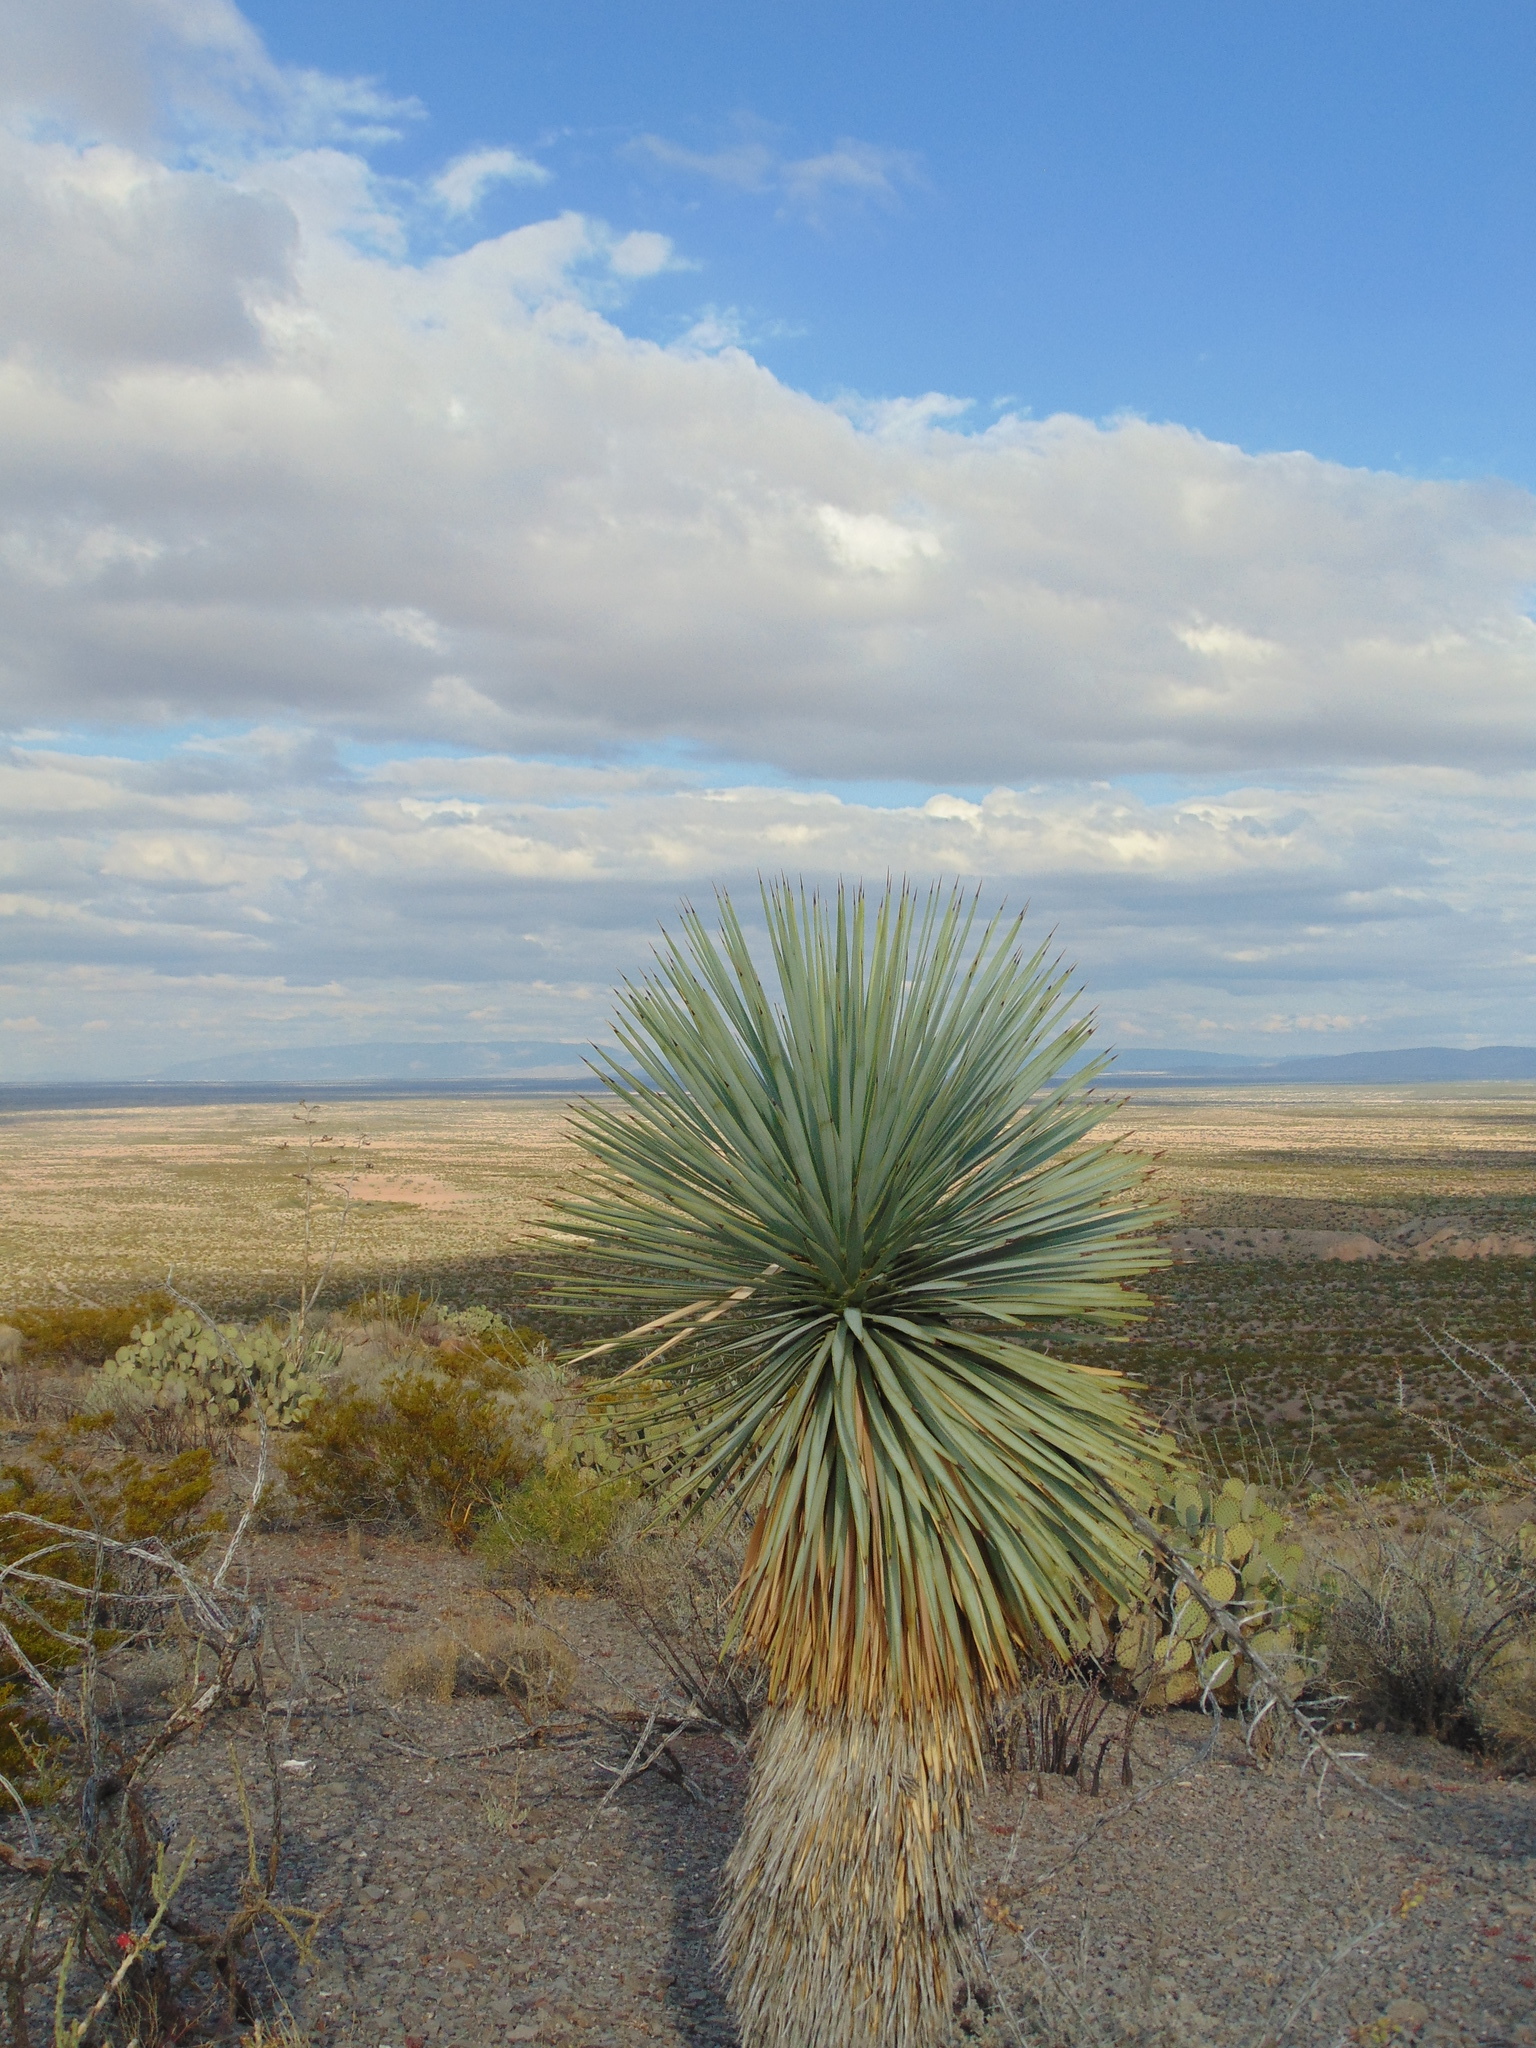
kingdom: Plantae
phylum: Tracheophyta
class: Liliopsida
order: Asparagales
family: Asparagaceae
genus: Yucca
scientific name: Yucca
